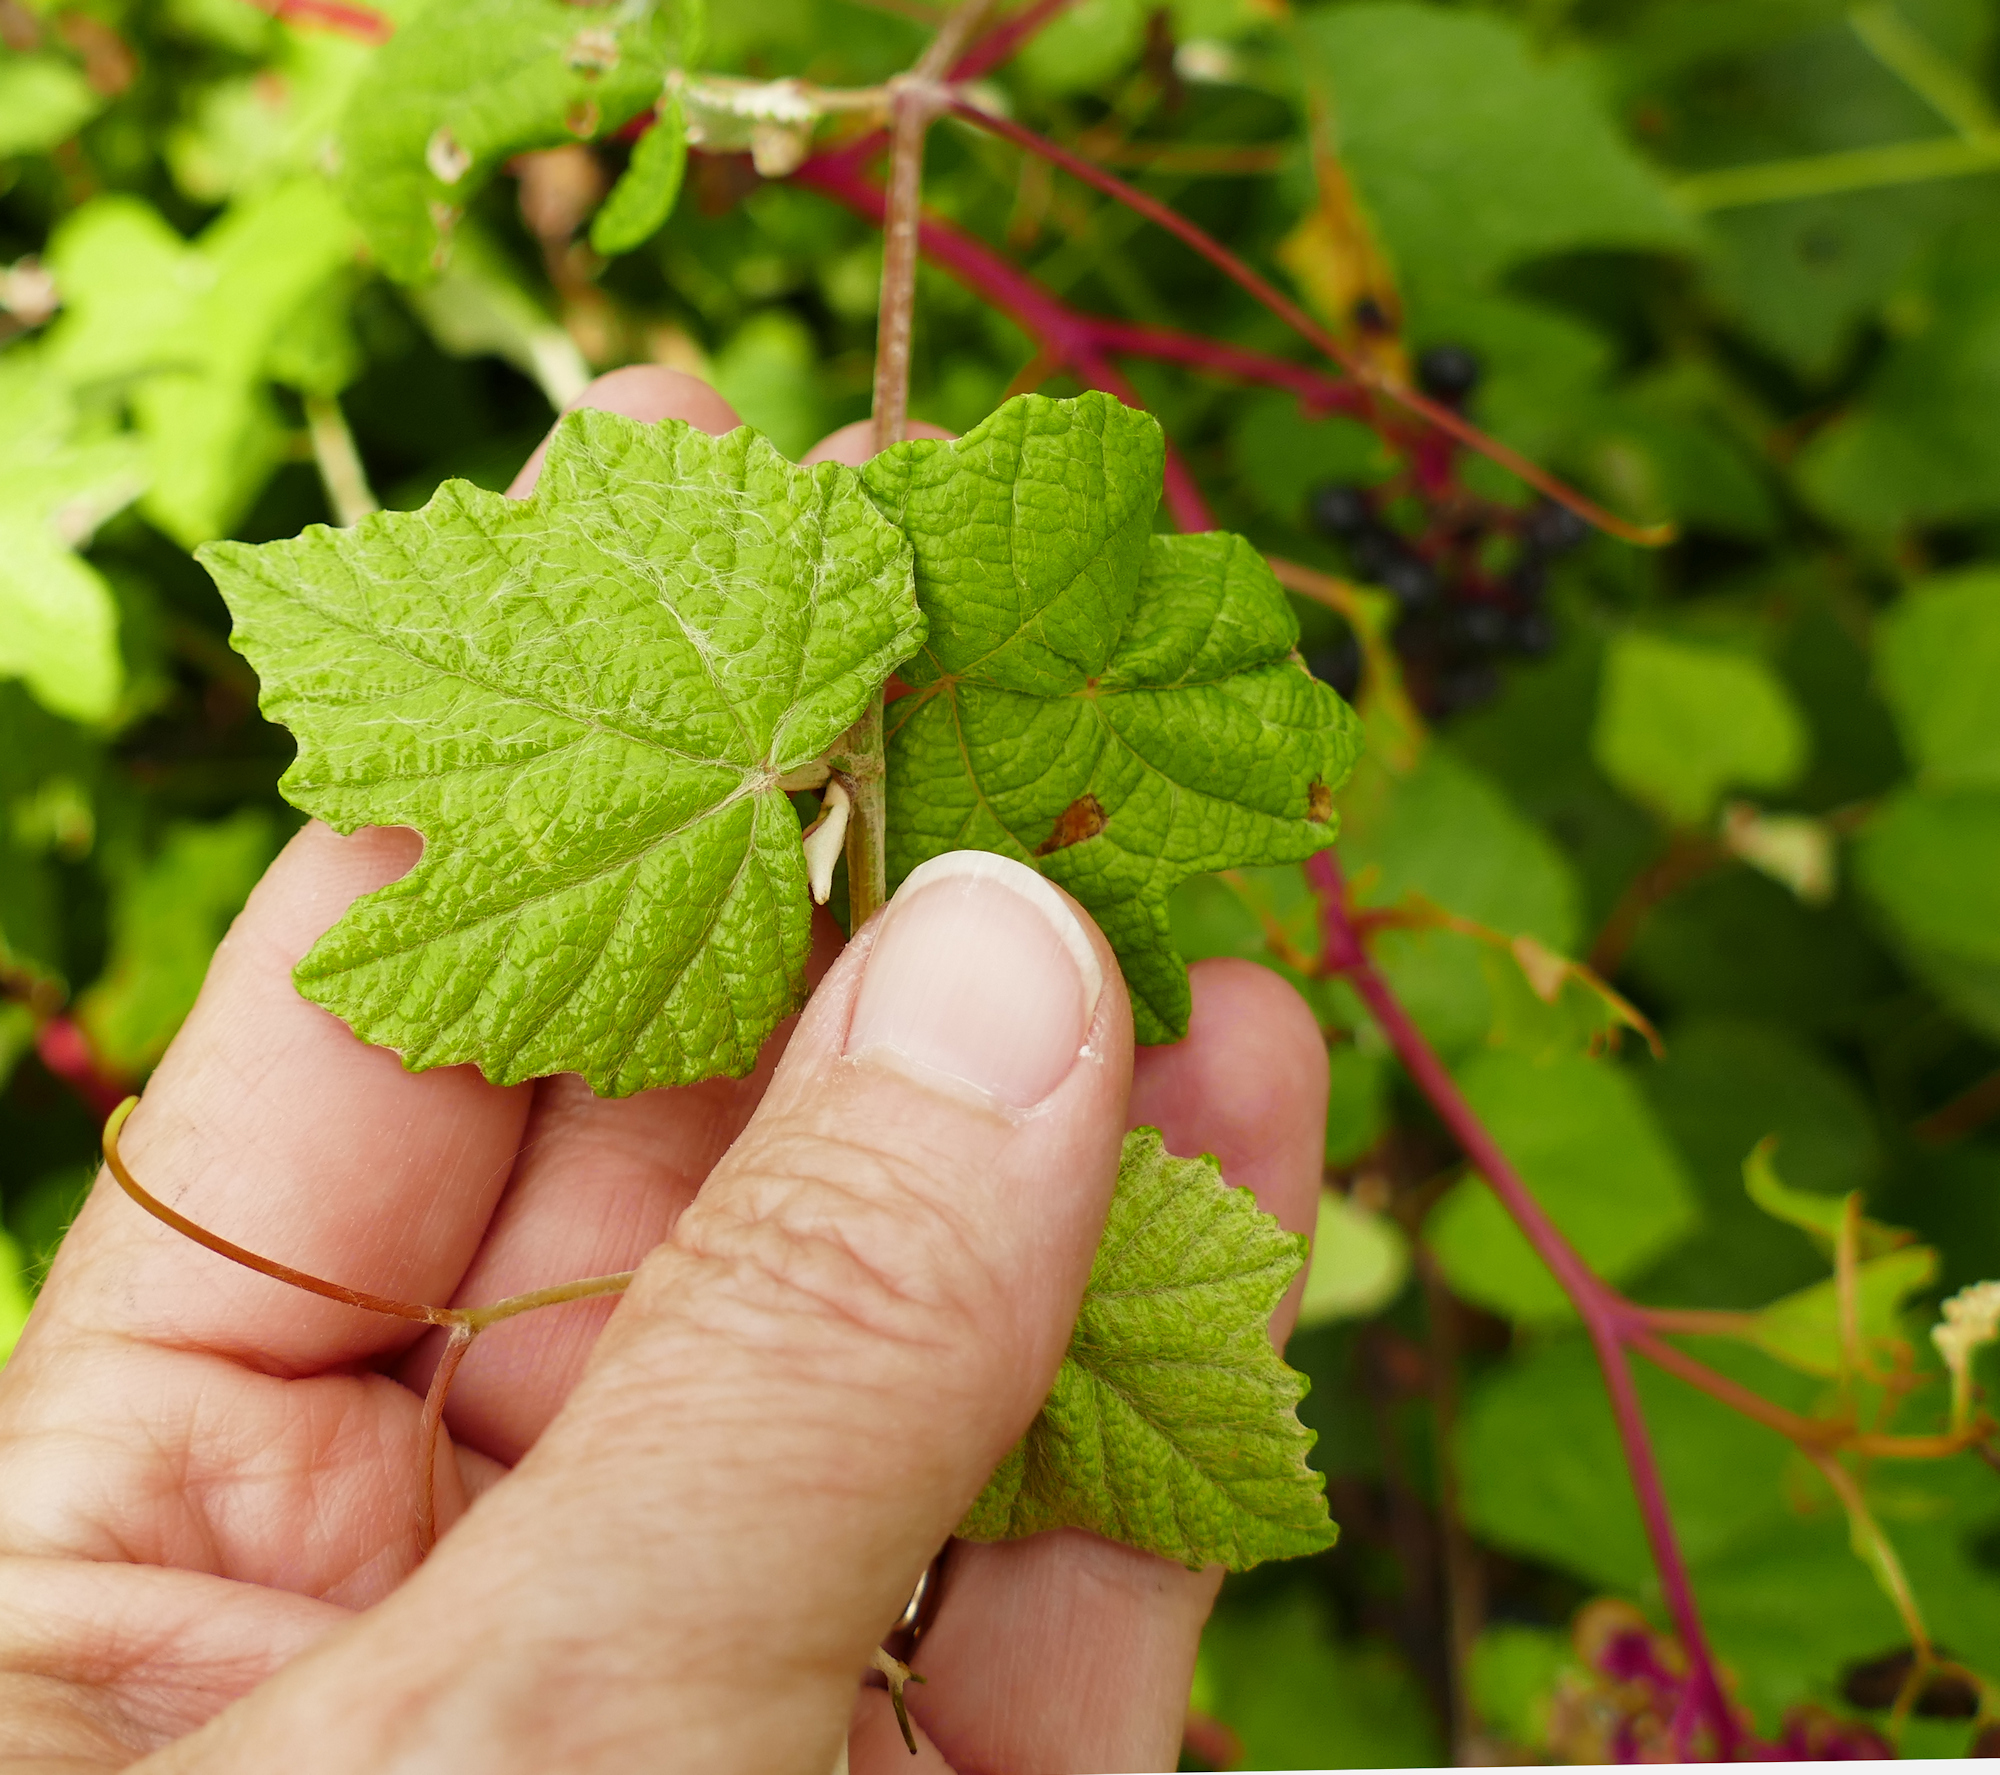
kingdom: Plantae
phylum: Tracheophyta
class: Magnoliopsida
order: Vitales
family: Vitaceae
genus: Vitis
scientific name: Vitis mustangensis
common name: Mustang grape
